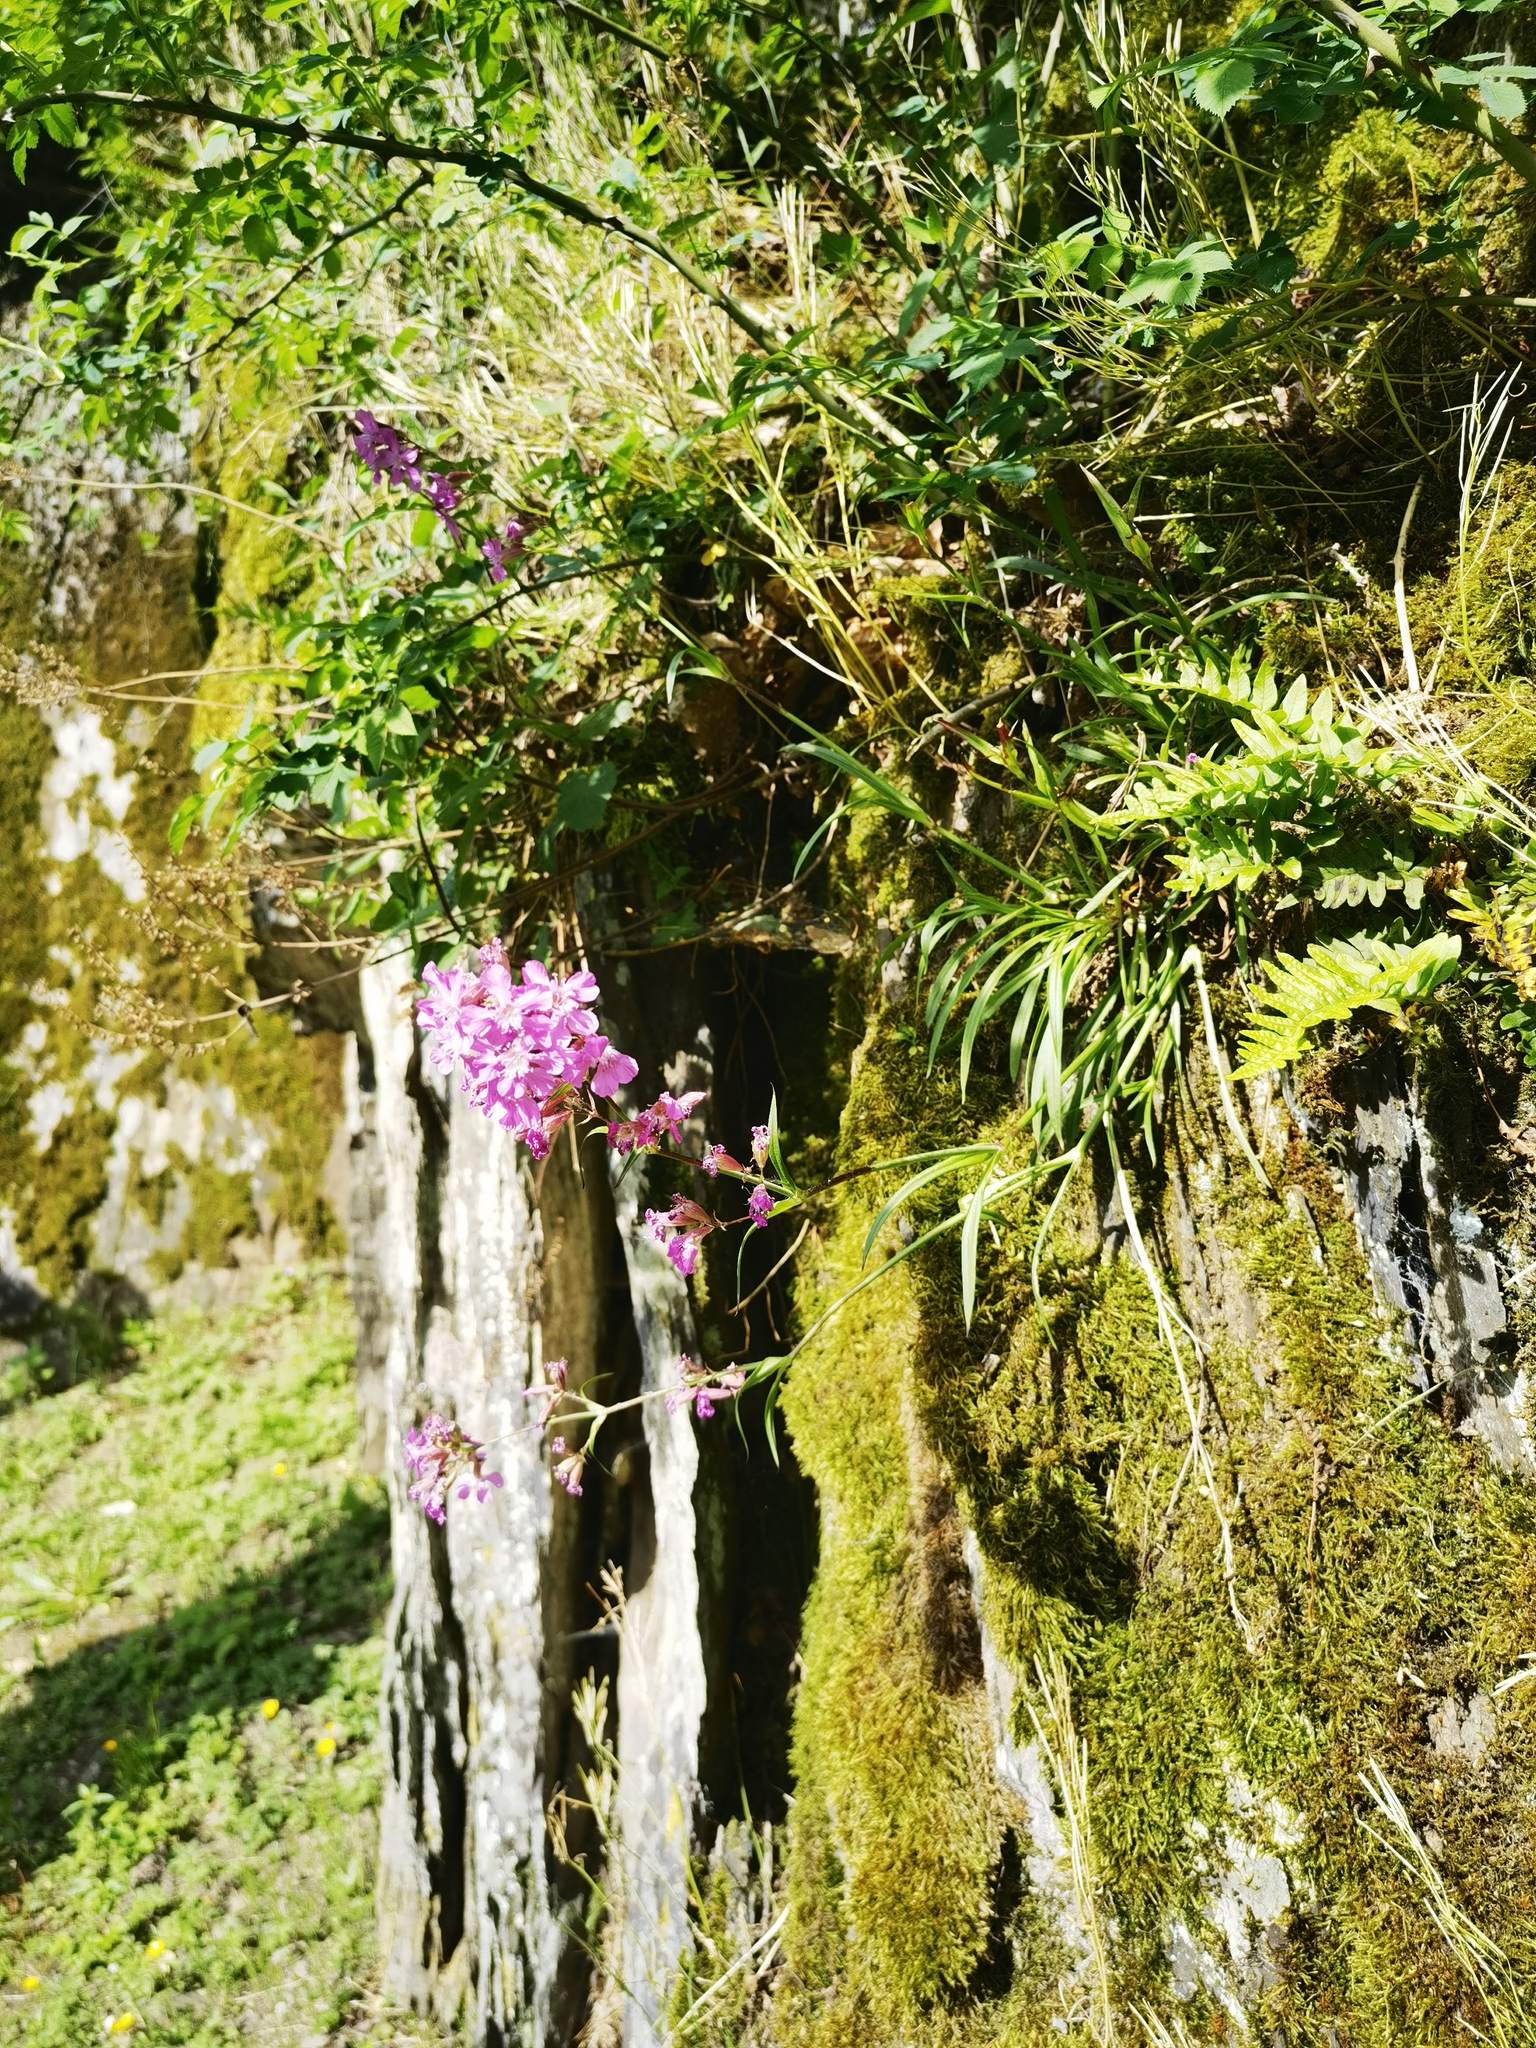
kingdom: Plantae
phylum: Tracheophyta
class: Magnoliopsida
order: Caryophyllales
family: Caryophyllaceae
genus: Viscaria
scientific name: Viscaria vulgaris
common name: Clammy campion
